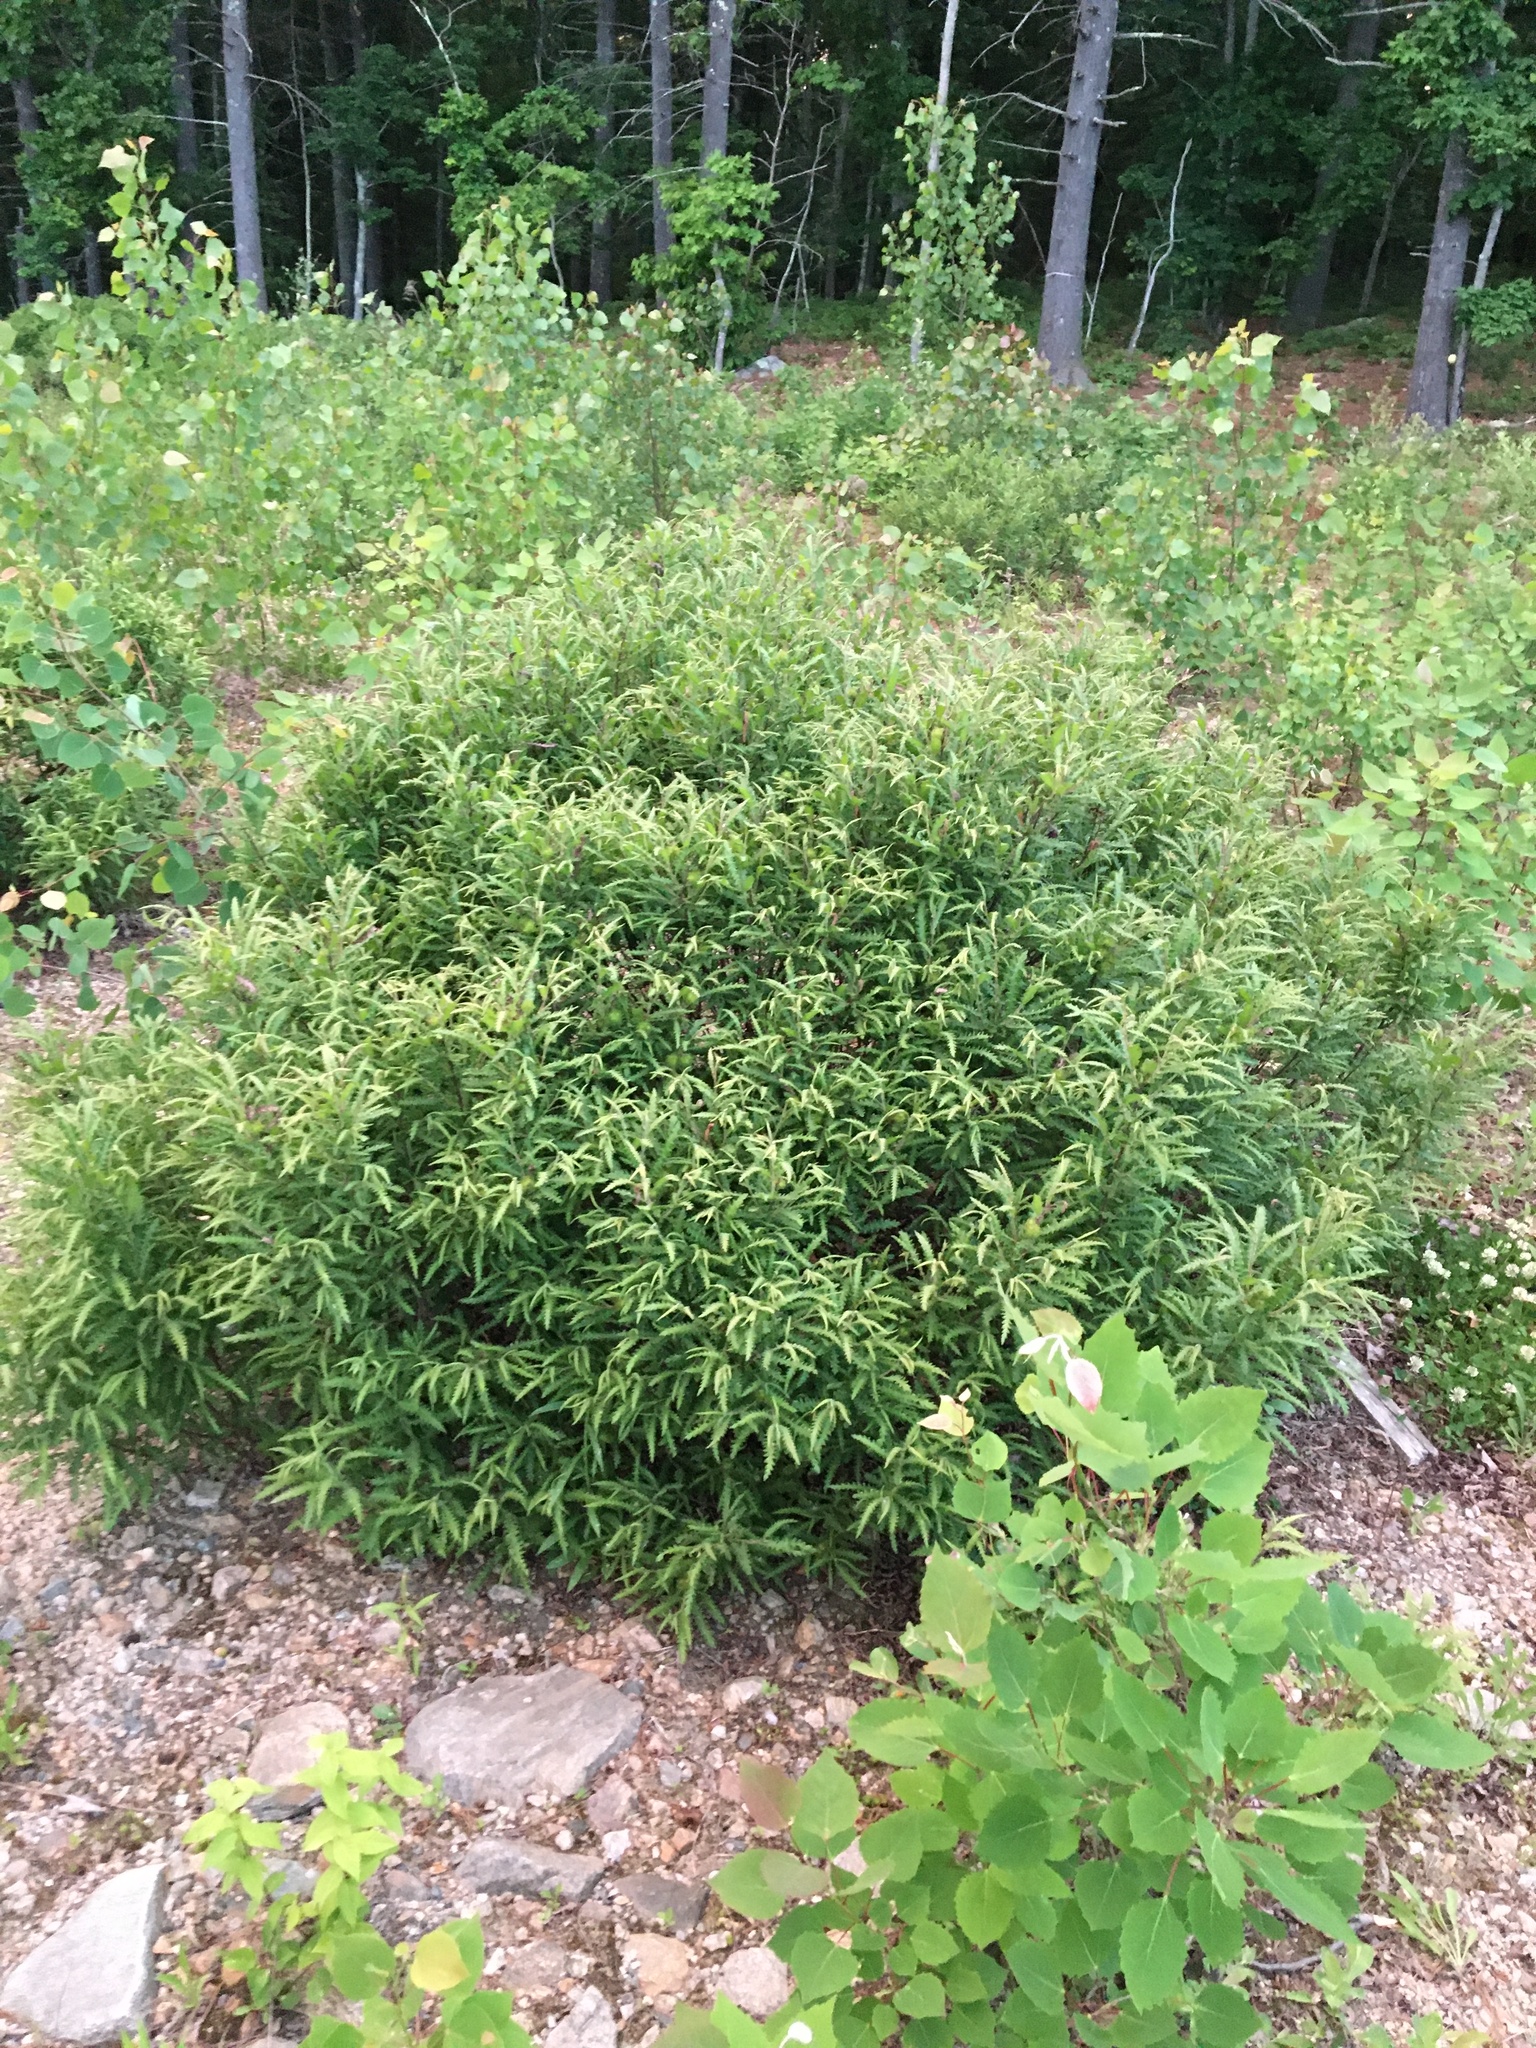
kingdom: Plantae
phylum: Tracheophyta
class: Magnoliopsida
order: Fagales
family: Myricaceae
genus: Comptonia
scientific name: Comptonia peregrina
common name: Sweet-fern
